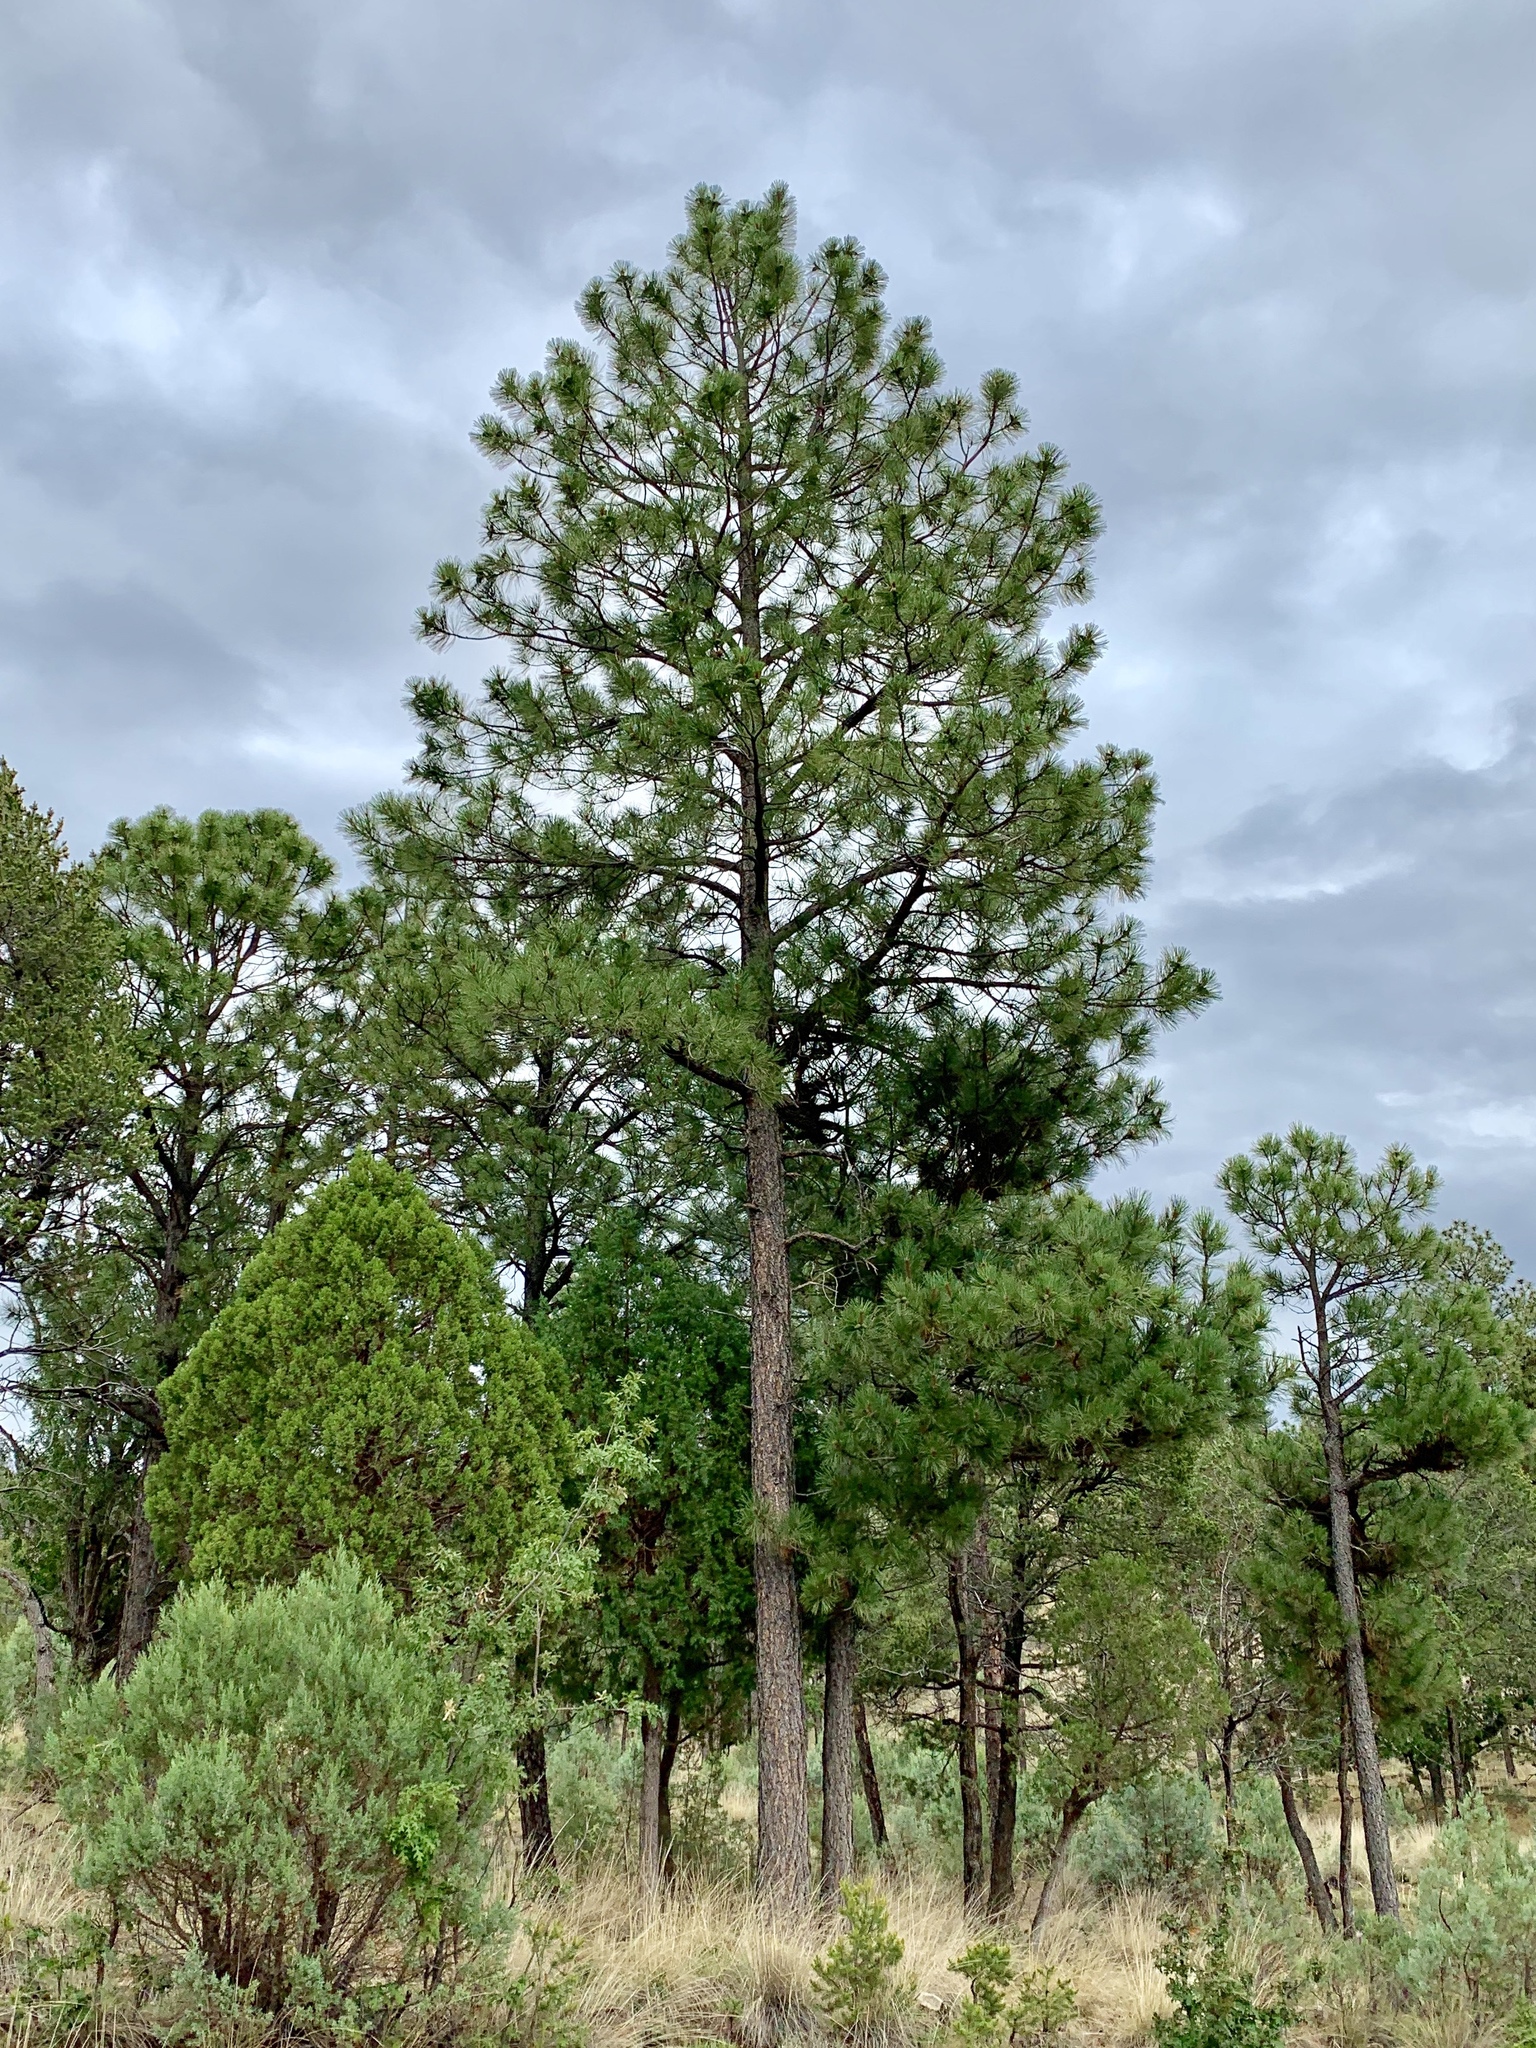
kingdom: Plantae
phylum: Tracheophyta
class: Pinopsida
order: Pinales
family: Pinaceae
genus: Pinus
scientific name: Pinus ponderosa
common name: Western yellow-pine
